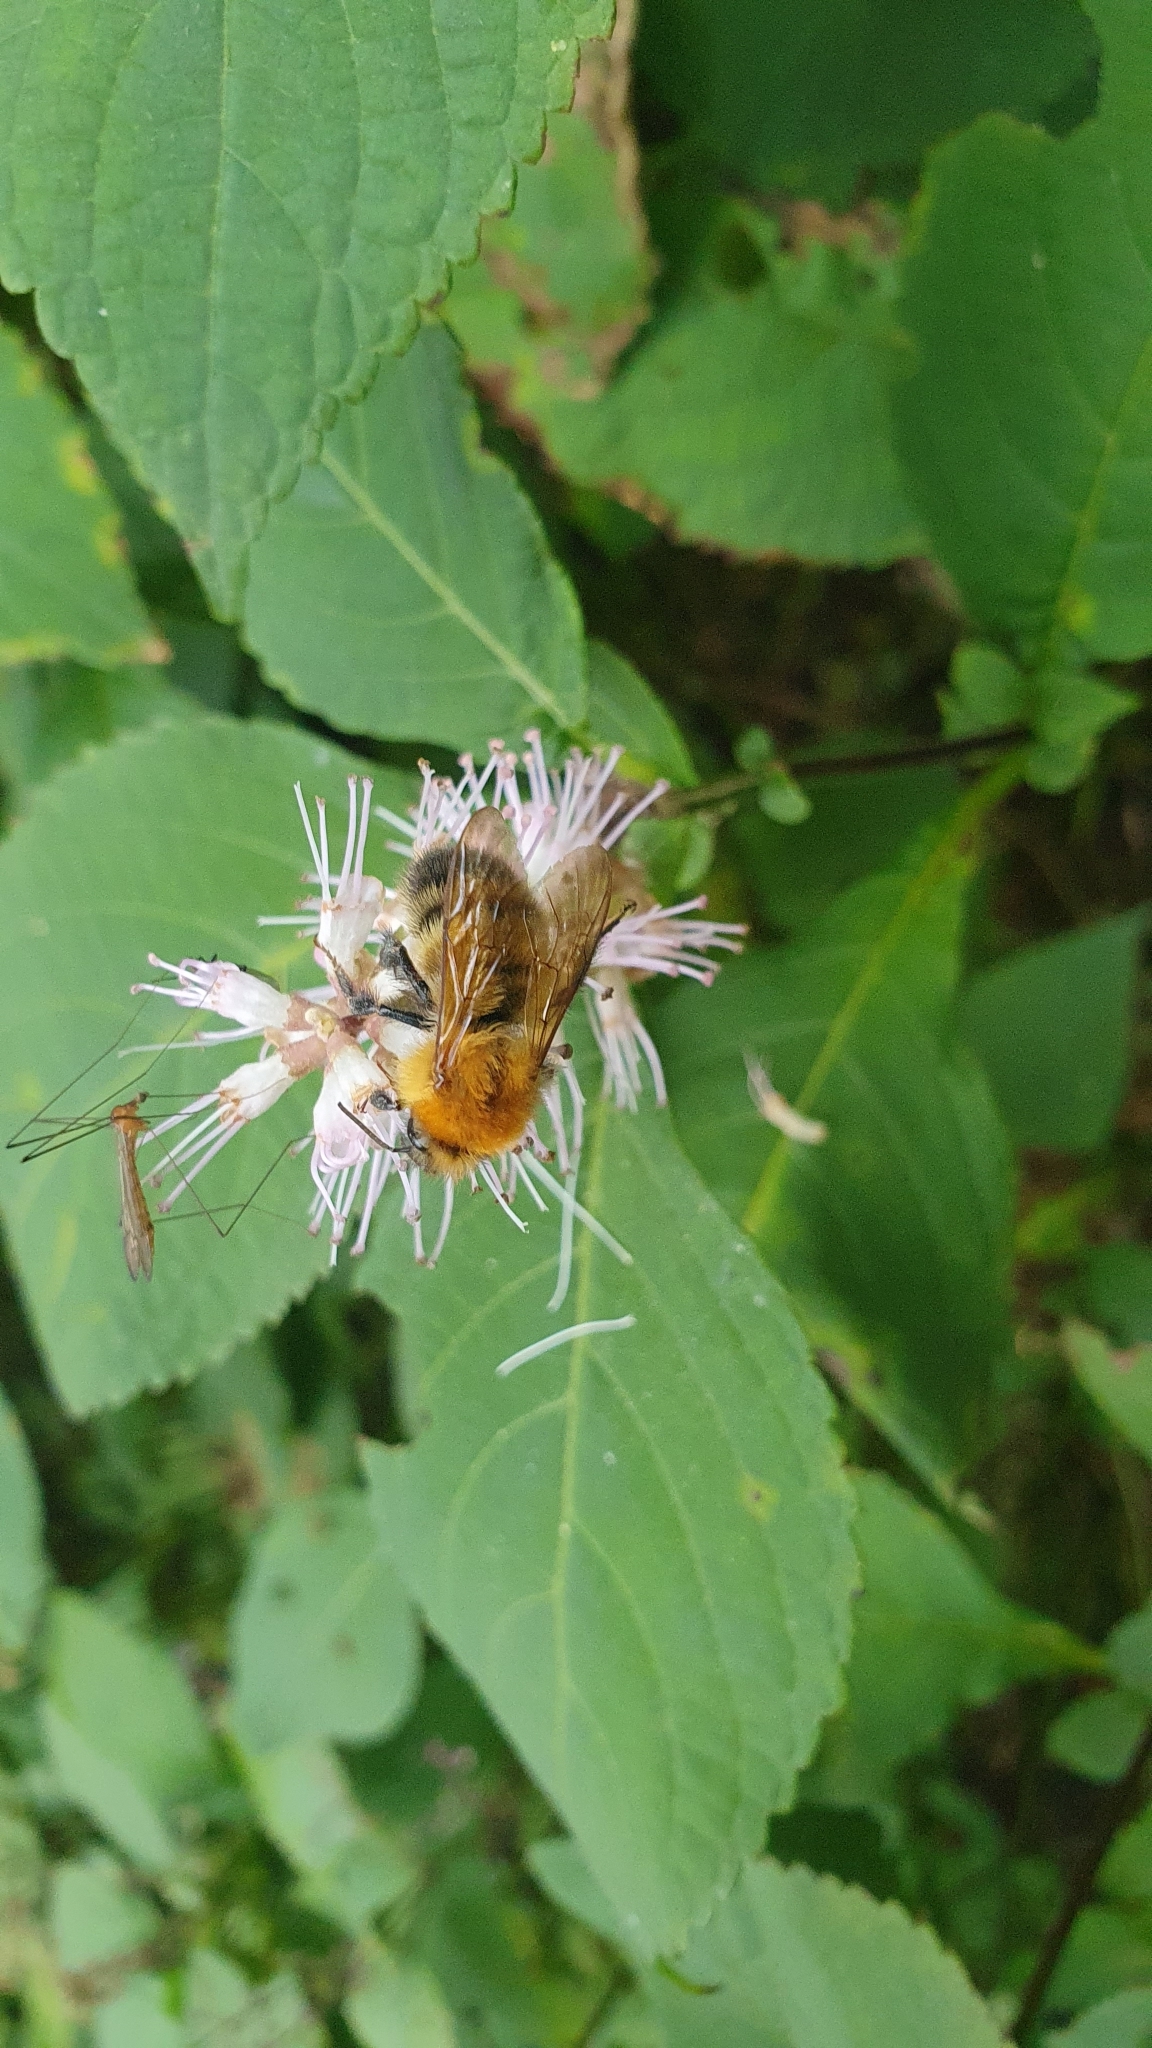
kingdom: Animalia
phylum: Arthropoda
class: Insecta
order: Hymenoptera
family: Apidae
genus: Bombus
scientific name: Bombus diversus
